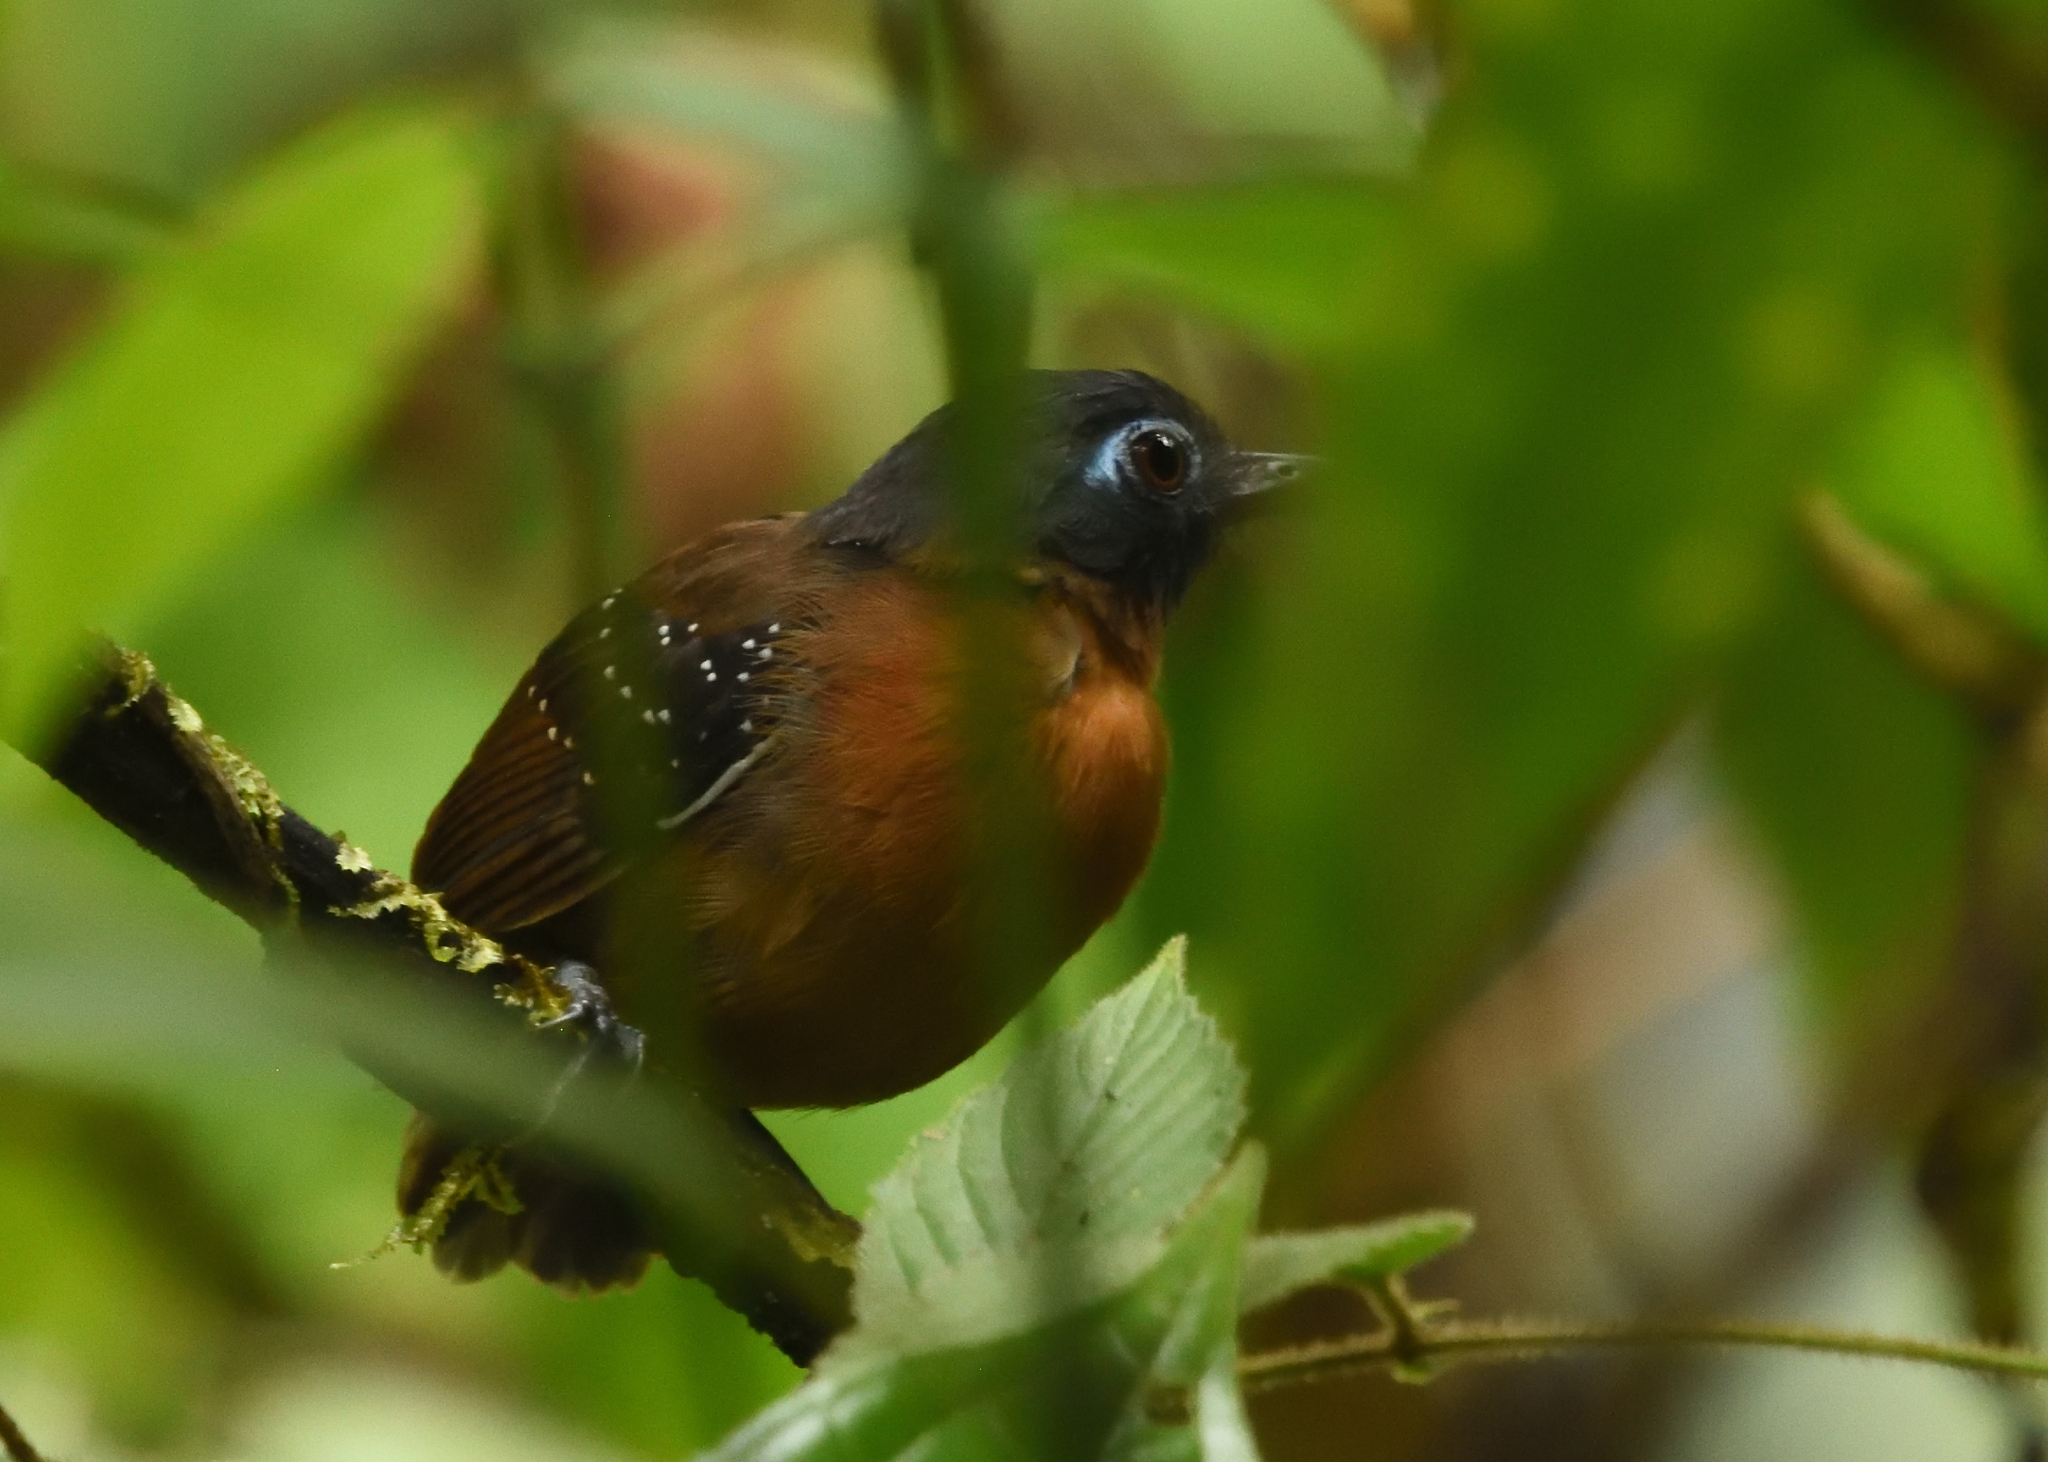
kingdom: Animalia
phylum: Chordata
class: Aves
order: Passeriformes
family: Thamnophilidae
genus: Myrmeciza
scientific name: Myrmeciza exsul
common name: Chestnut-backed antbird
